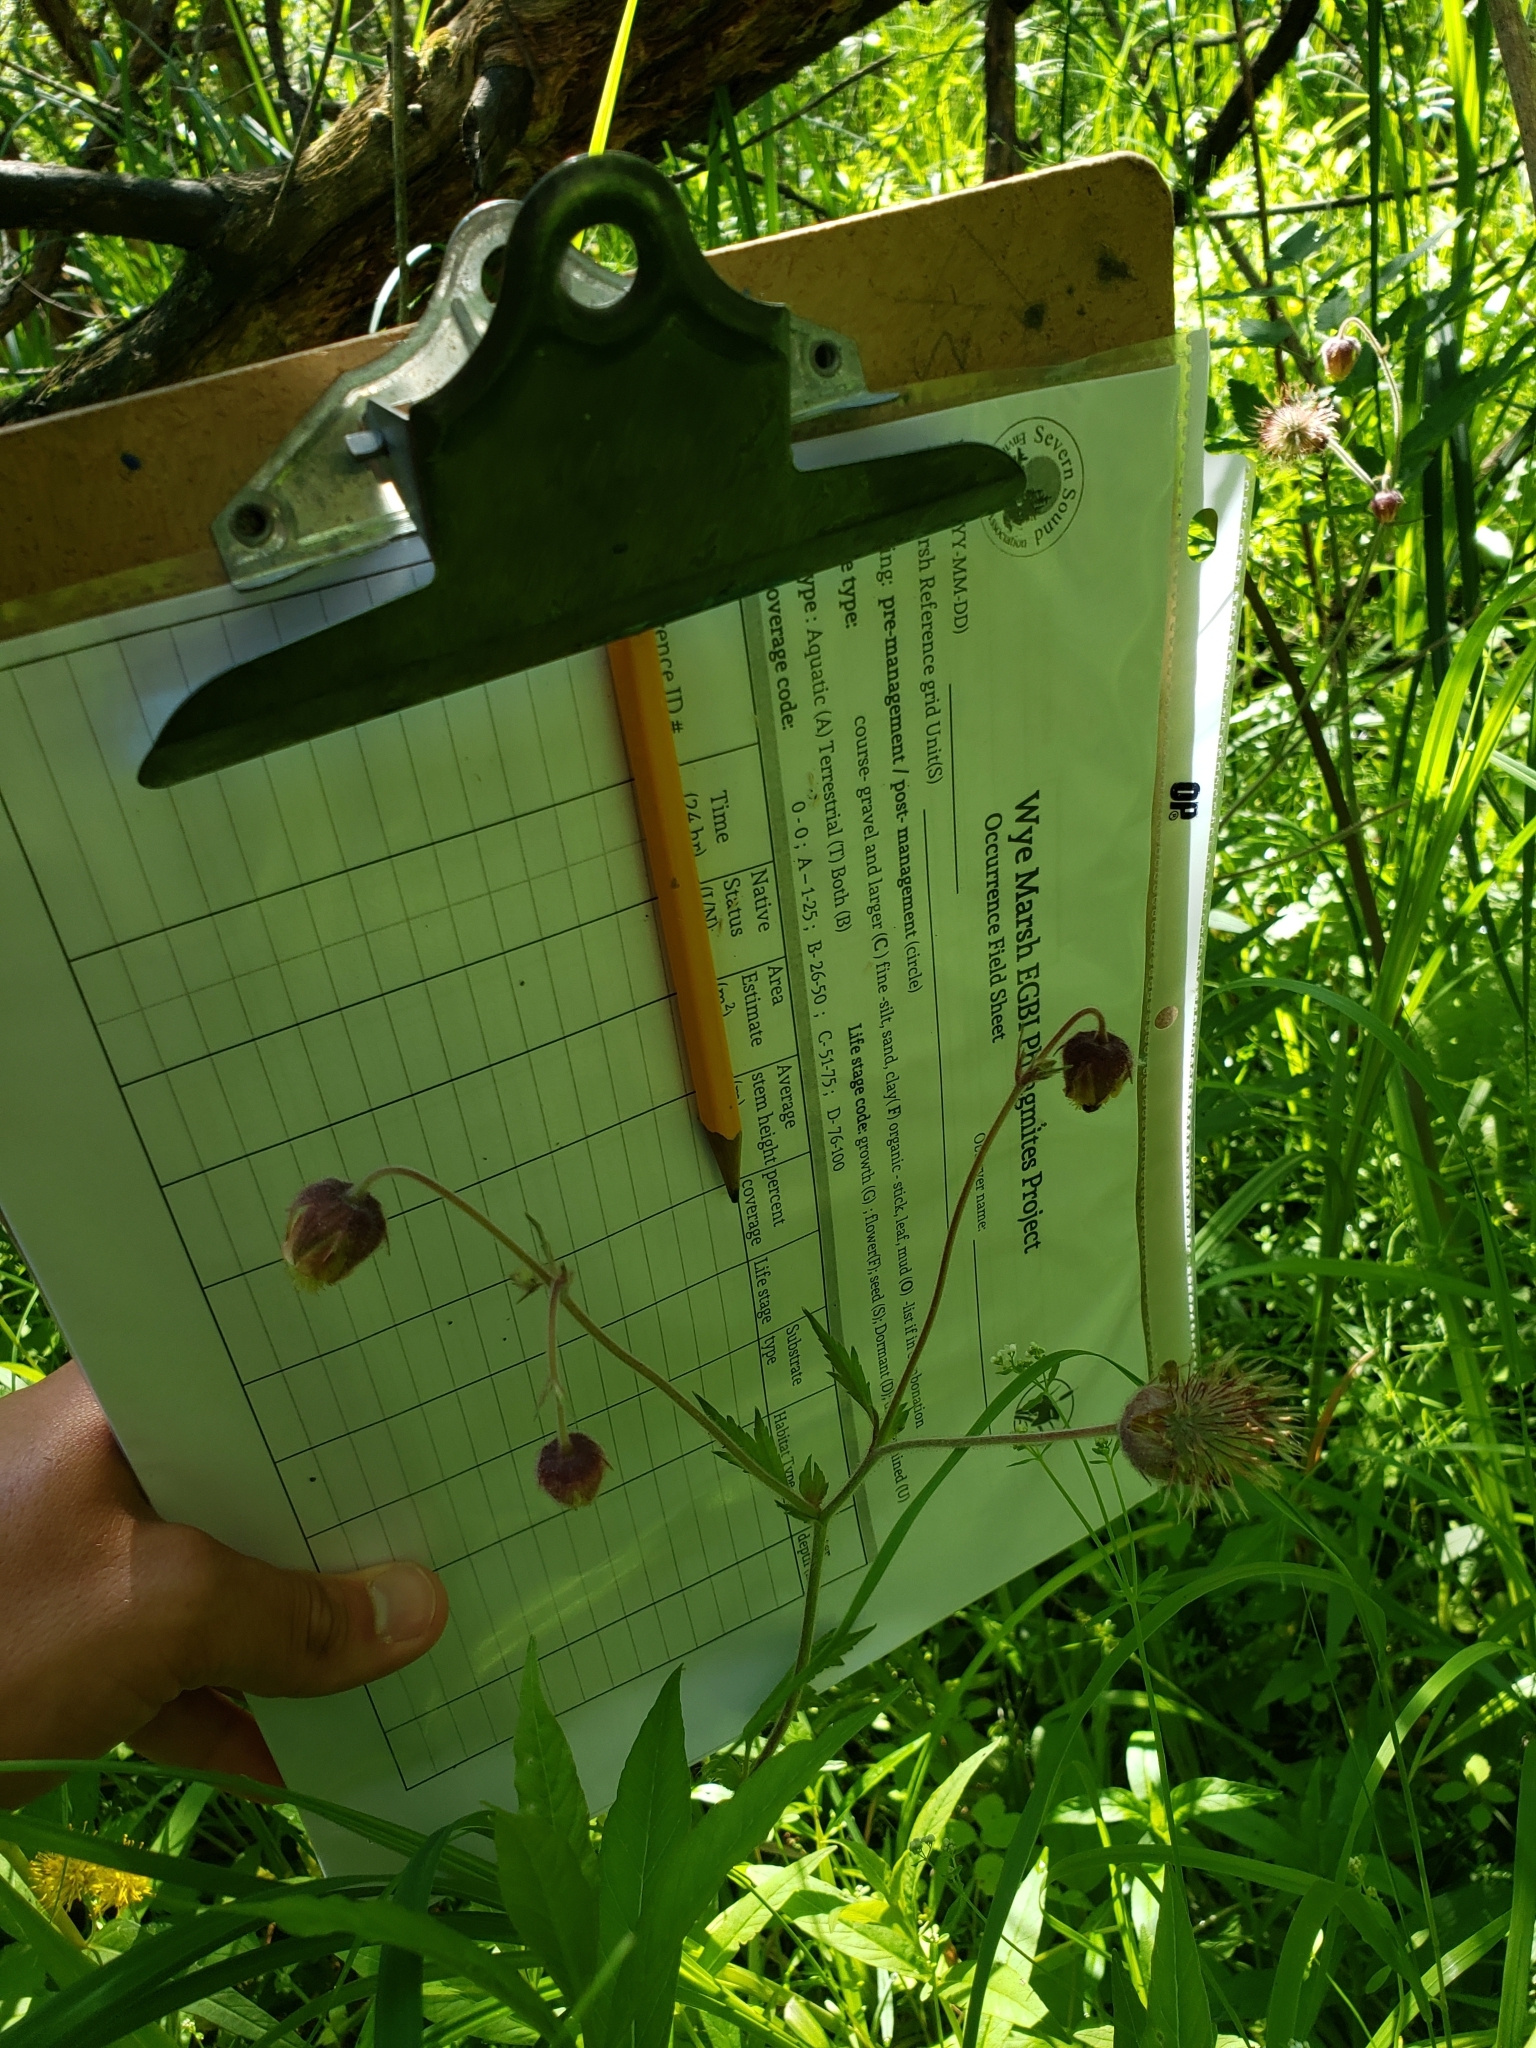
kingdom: Plantae
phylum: Tracheophyta
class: Magnoliopsida
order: Rosales
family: Rosaceae
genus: Geum
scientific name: Geum rivale
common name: Water avens
